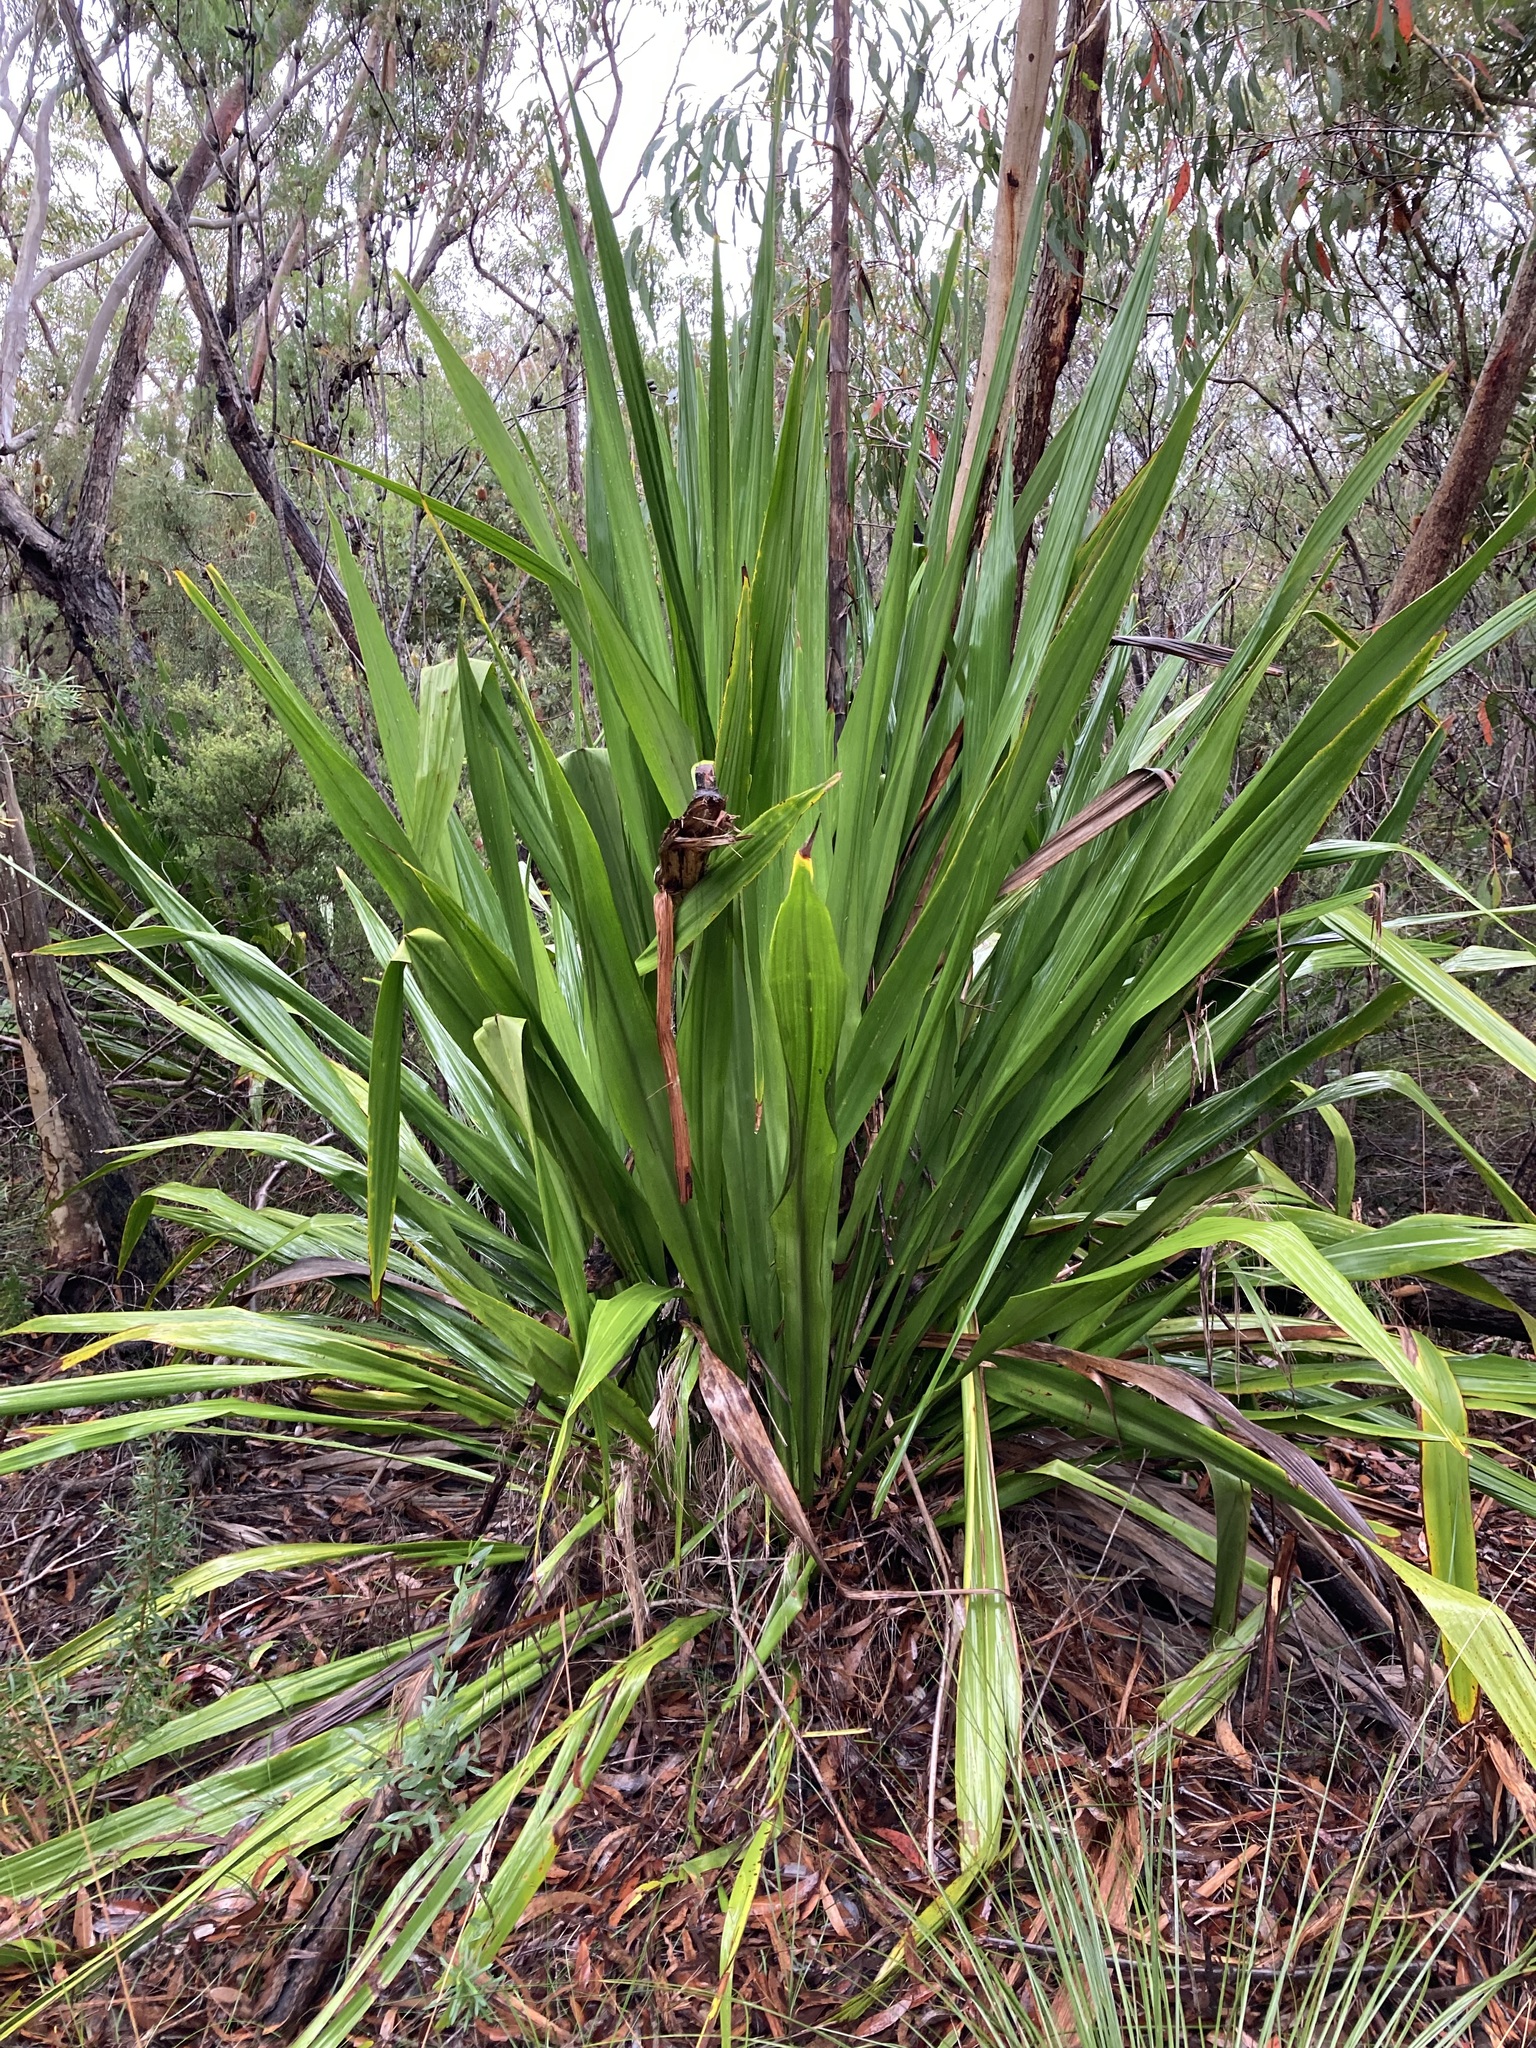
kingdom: Plantae
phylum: Tracheophyta
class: Liliopsida
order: Asparagales
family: Doryanthaceae
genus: Doryanthes
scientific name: Doryanthes excelsa
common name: Giant-lily
